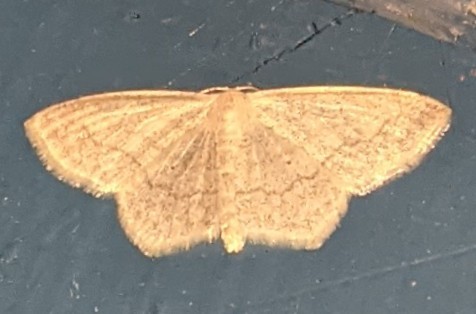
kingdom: Animalia
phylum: Arthropoda
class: Insecta
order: Lepidoptera
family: Geometridae
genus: Scopula
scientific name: Scopula limboundata
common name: Large lace border
